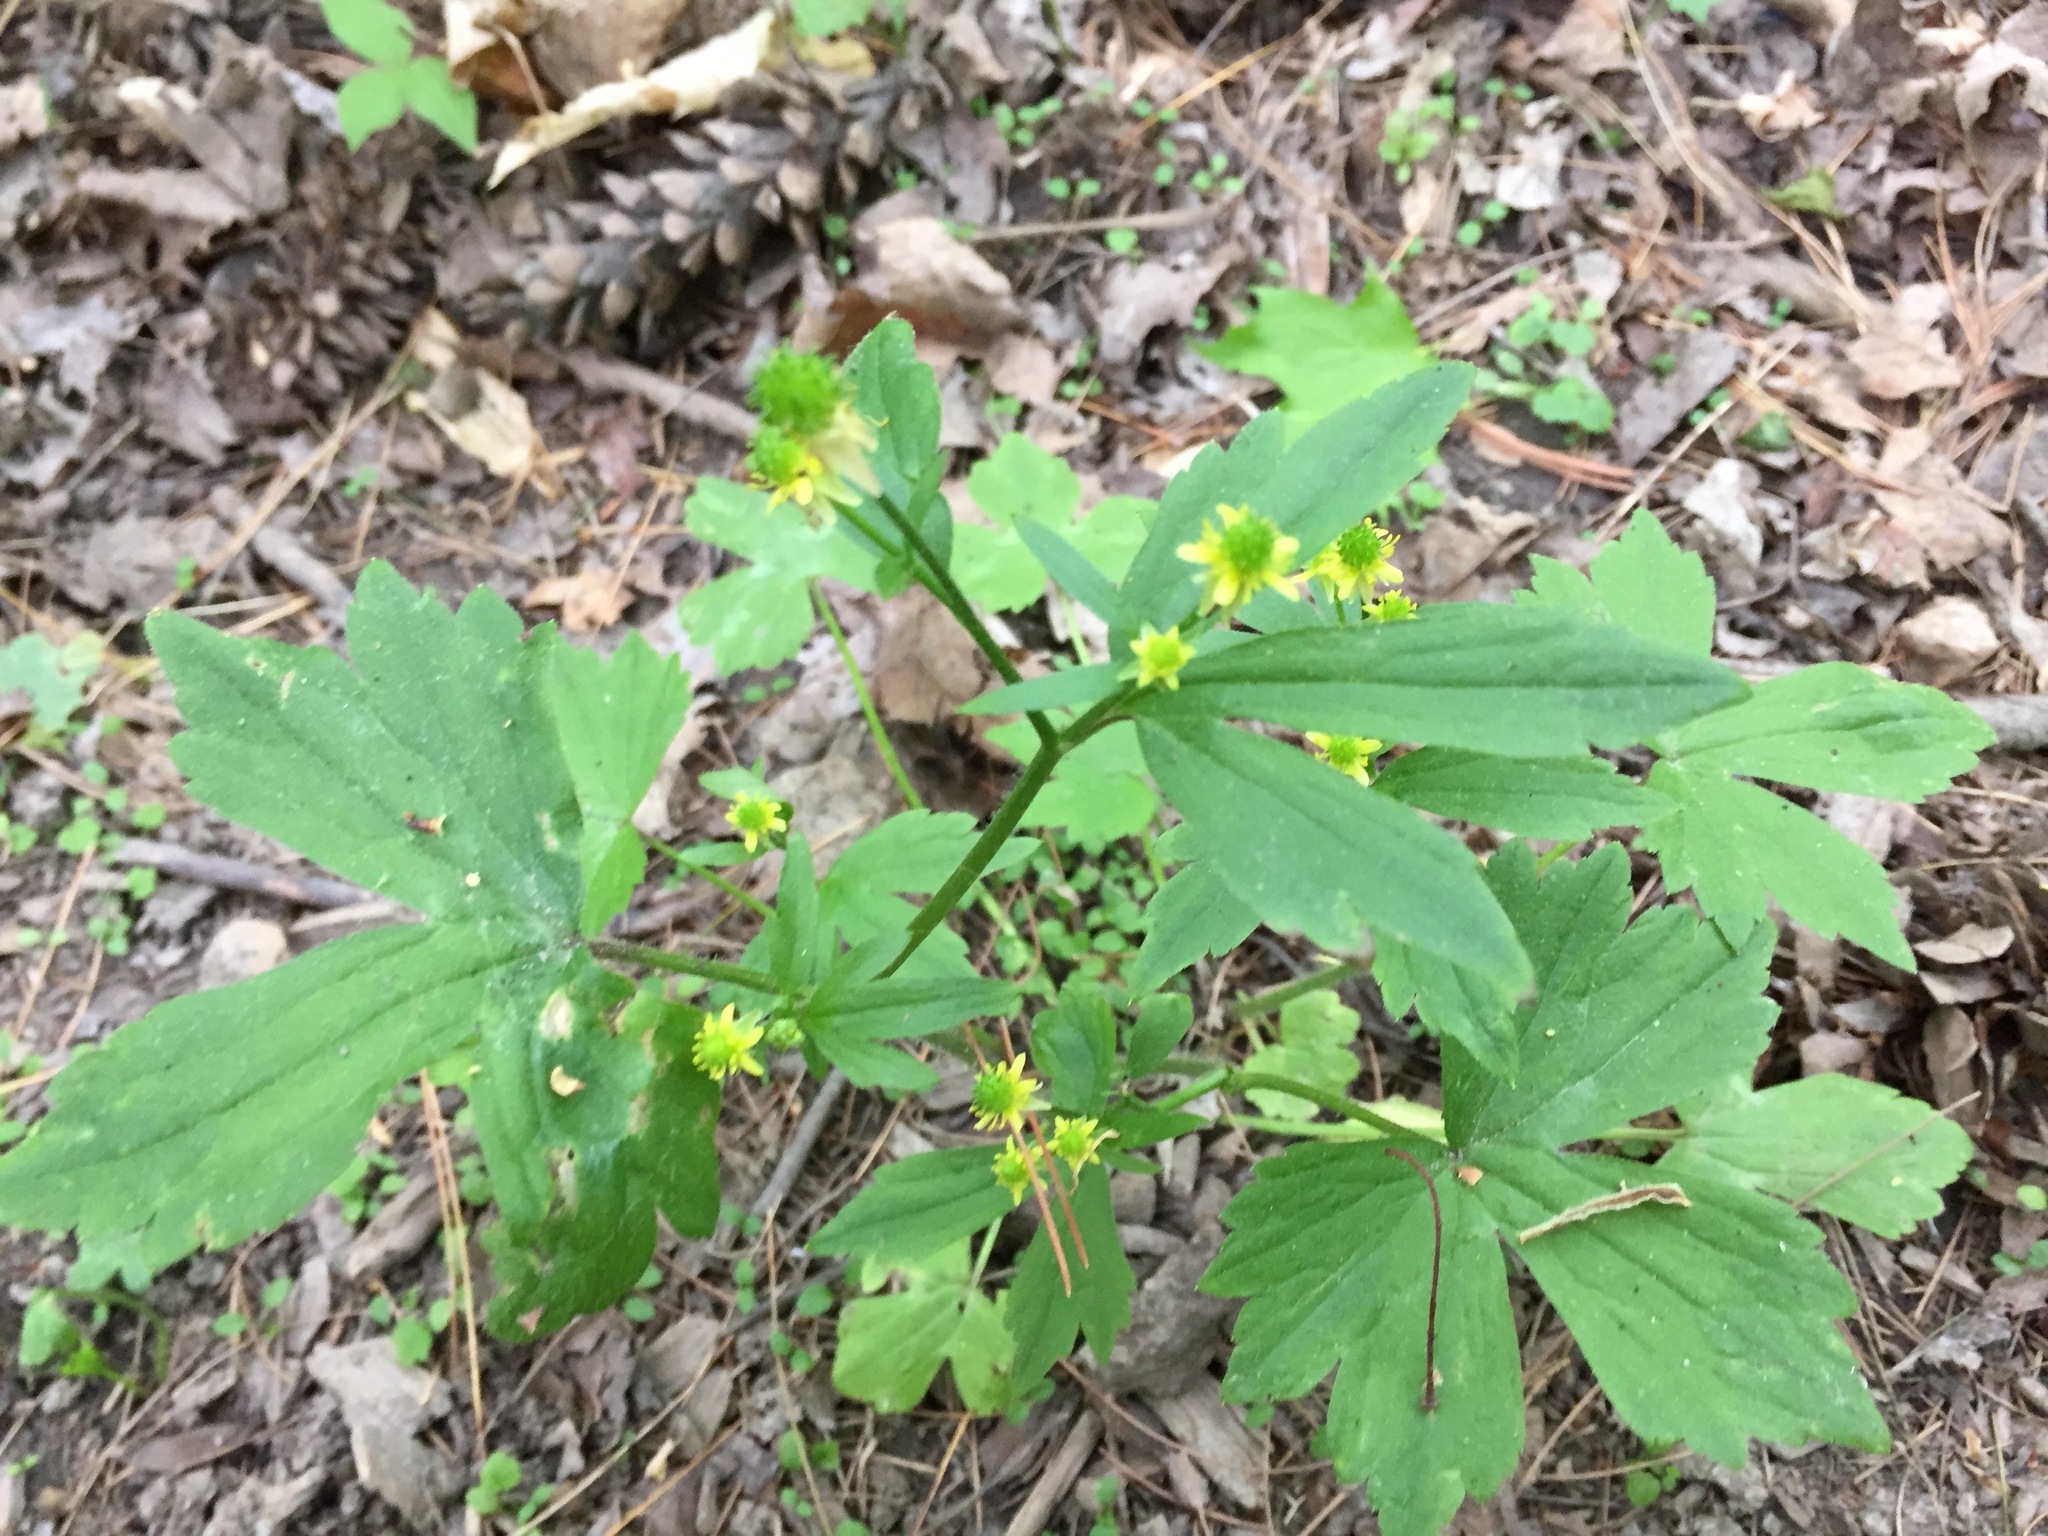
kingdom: Plantae
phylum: Tracheophyta
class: Magnoliopsida
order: Ranunculales
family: Ranunculaceae
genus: Ranunculus
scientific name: Ranunculus recurvatus
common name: Blisterwort
